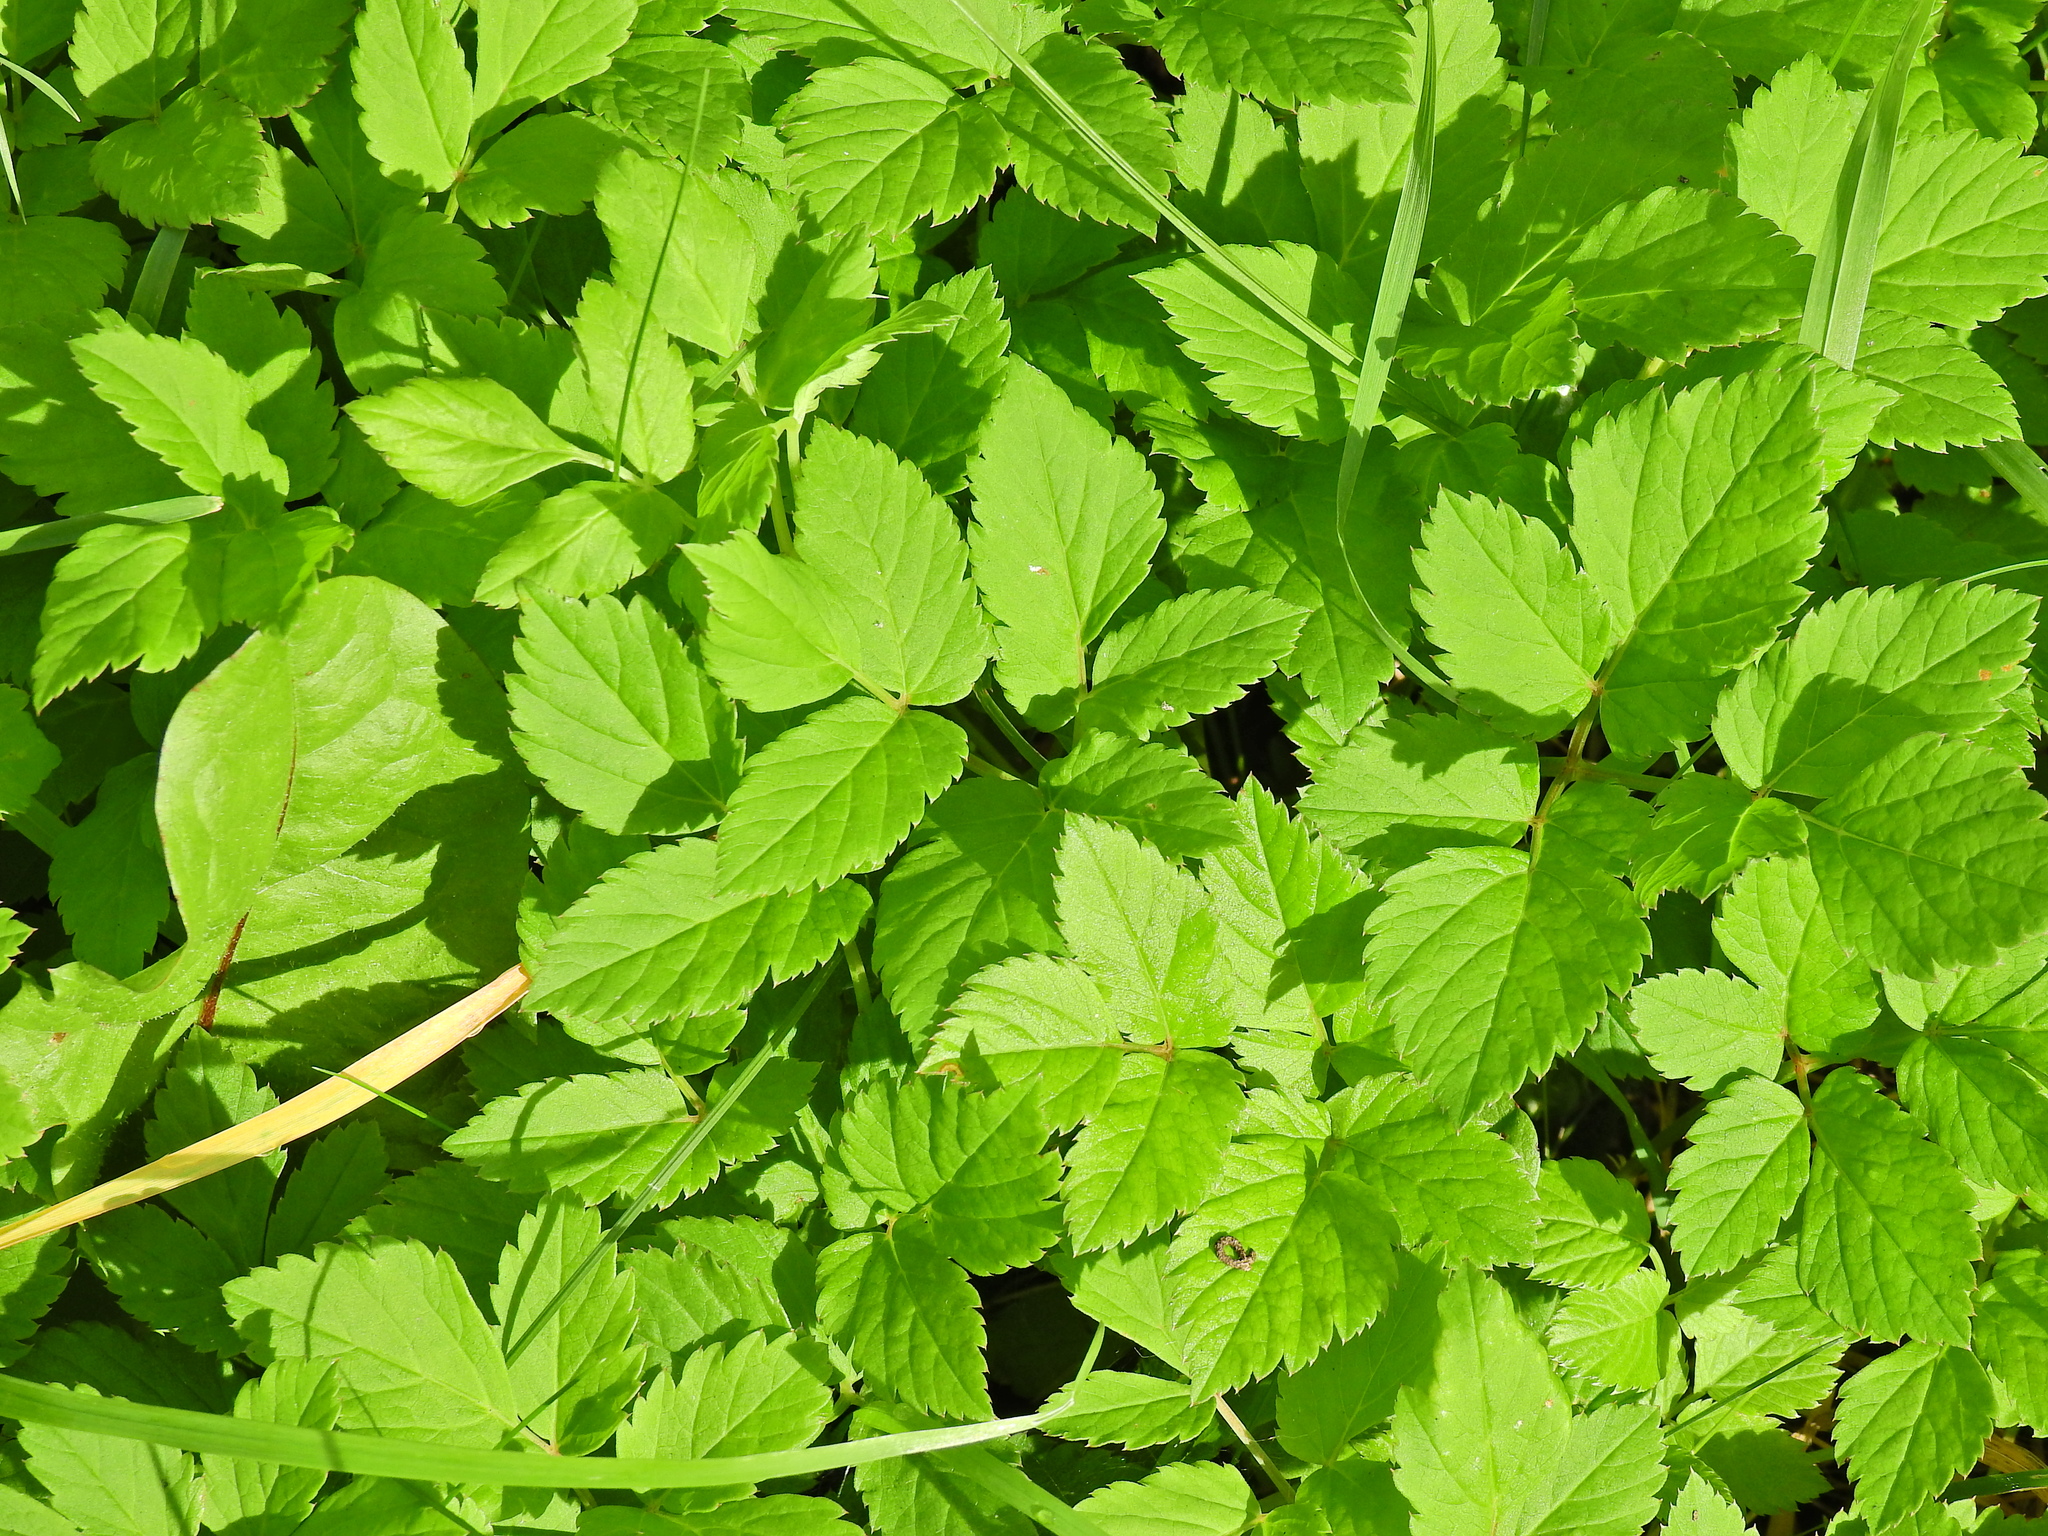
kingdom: Plantae
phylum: Tracheophyta
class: Magnoliopsida
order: Apiales
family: Apiaceae
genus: Aegopodium
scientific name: Aegopodium podagraria
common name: Ground-elder
